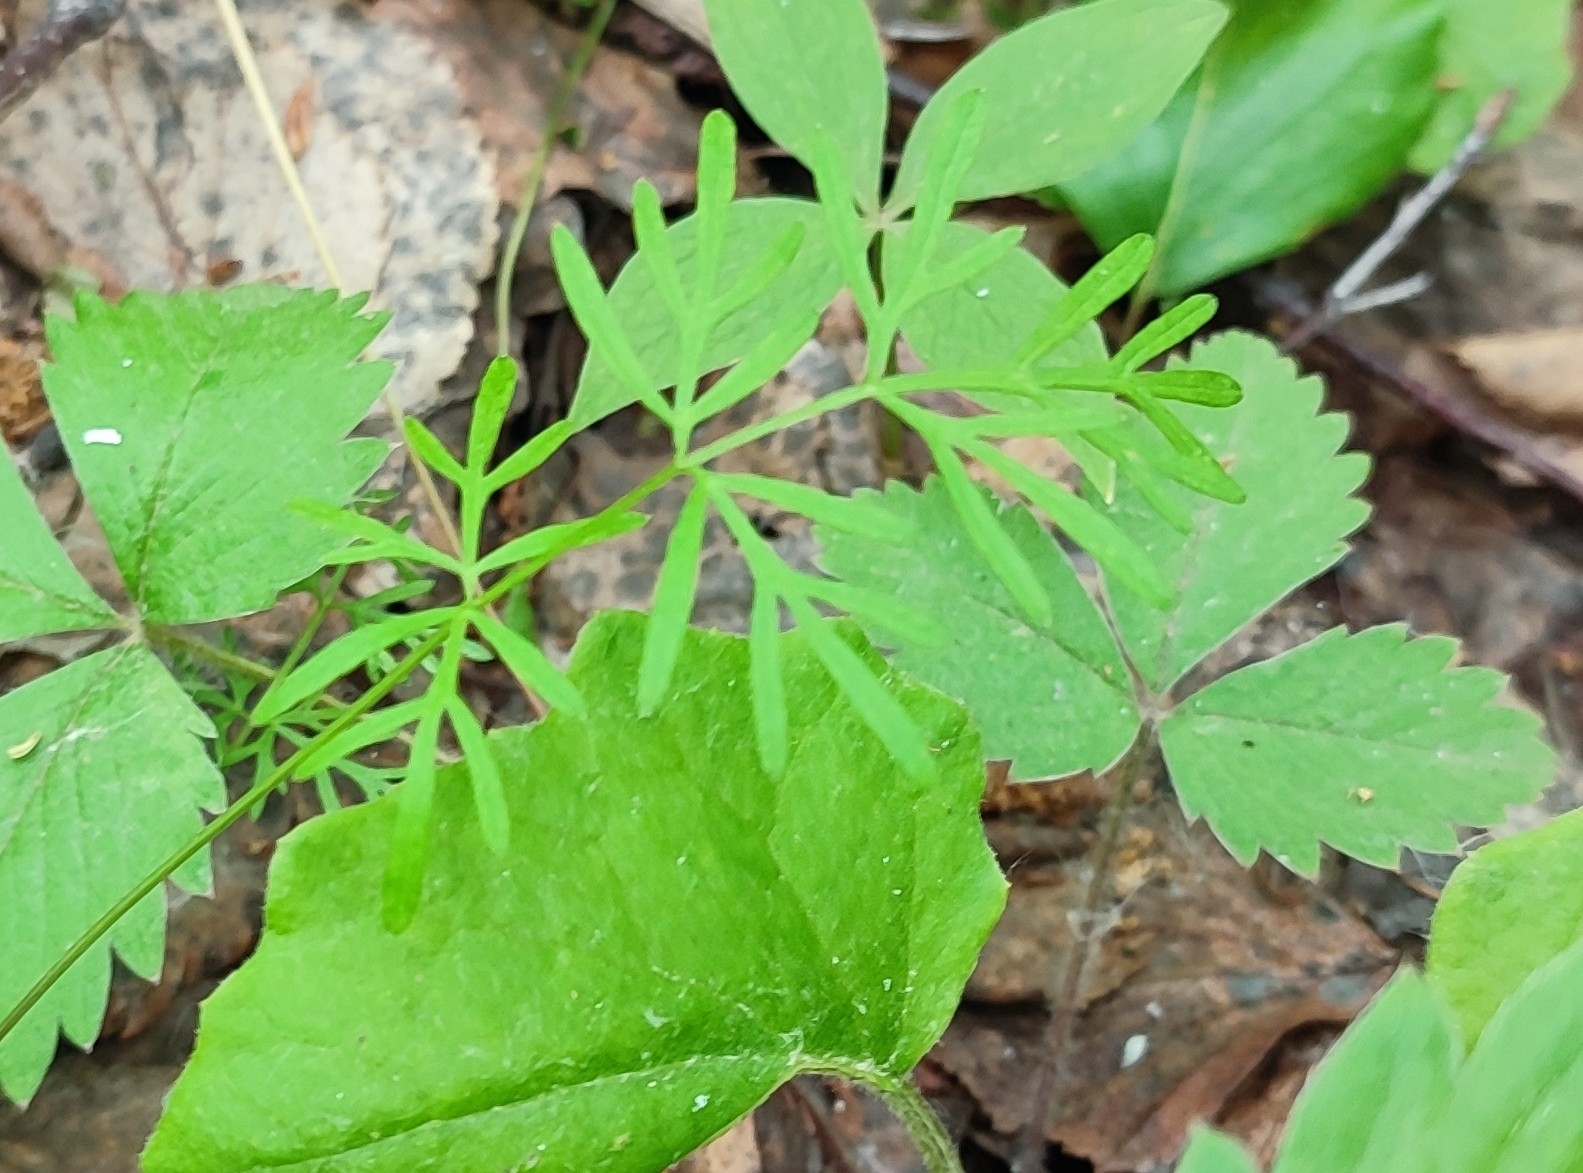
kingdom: Plantae
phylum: Tracheophyta
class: Magnoliopsida
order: Apiales
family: Apiaceae
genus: Kadenia
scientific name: Kadenia dubia
